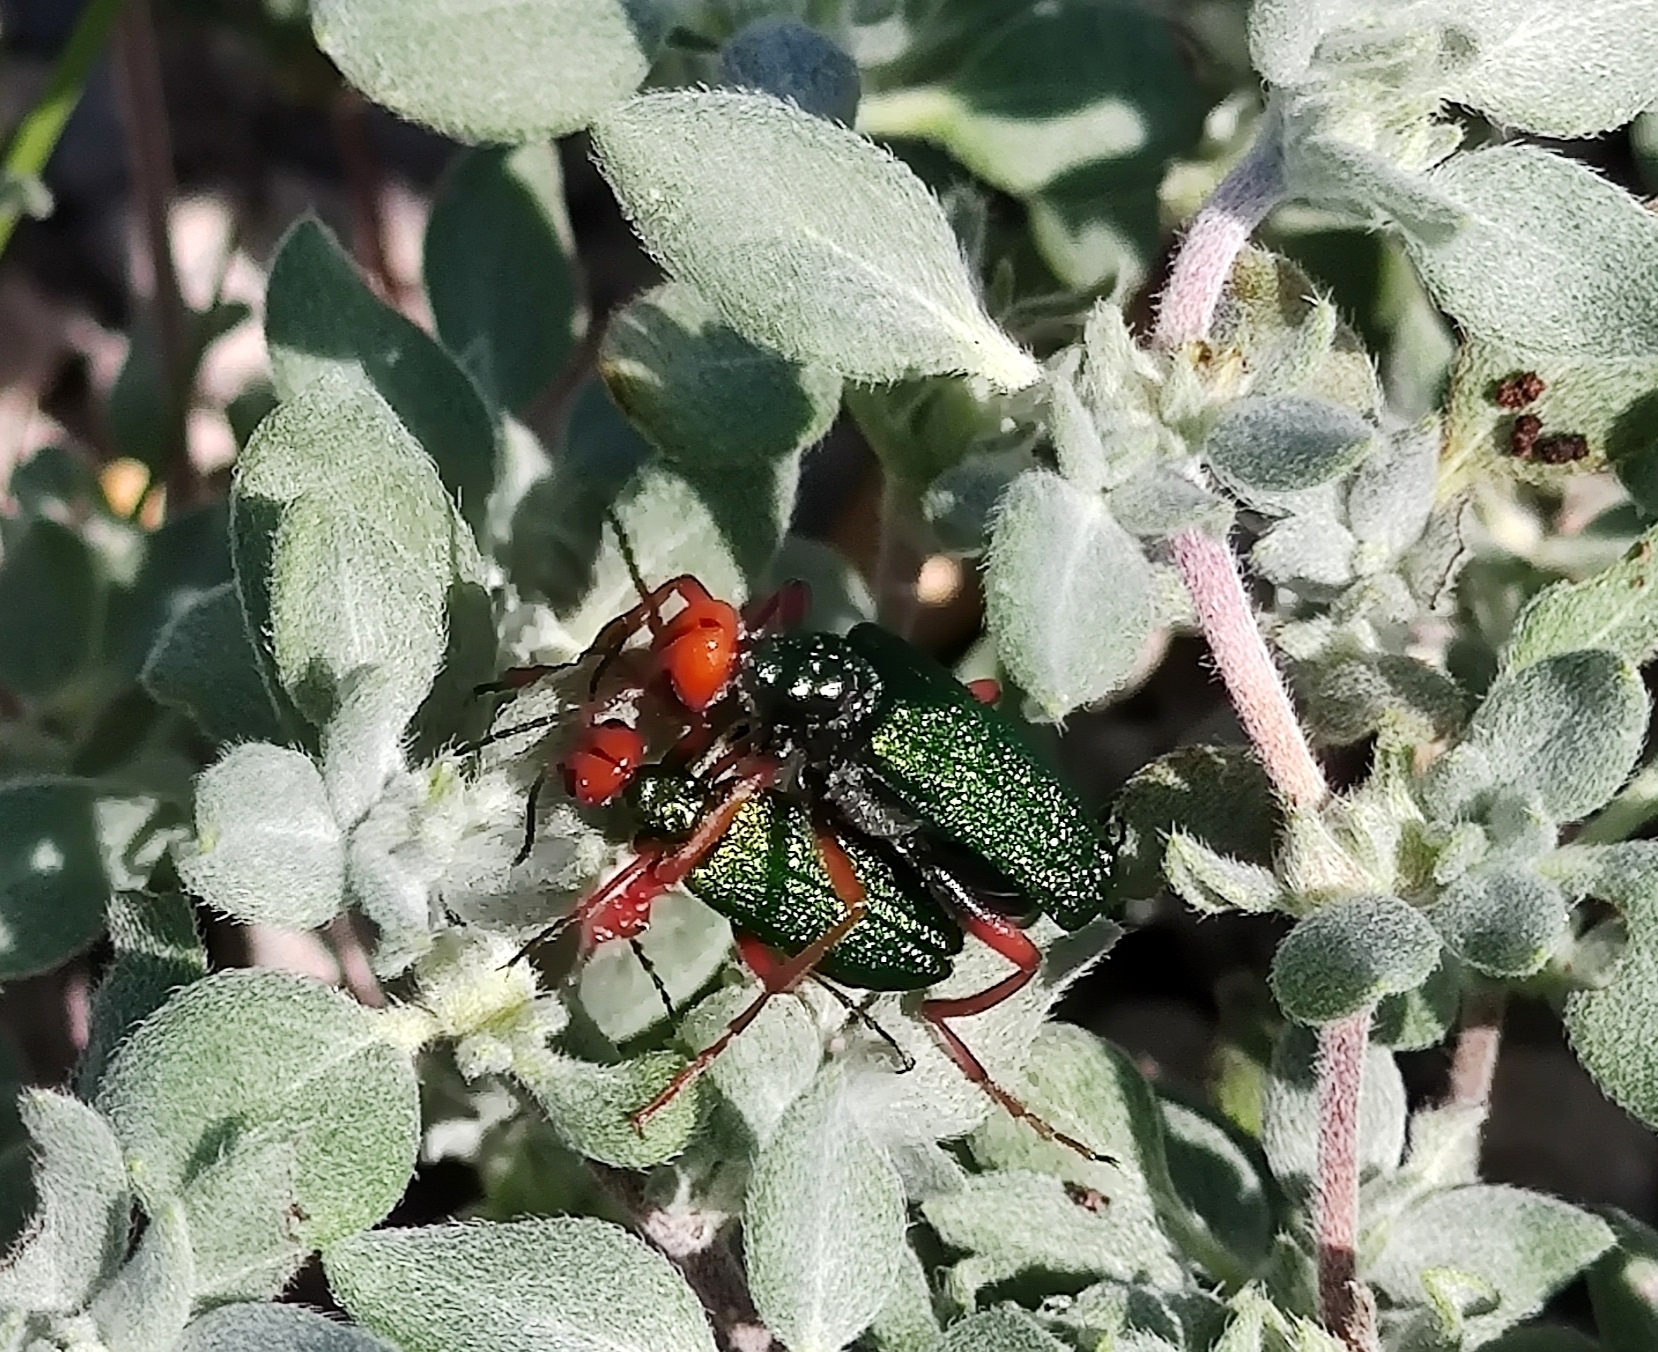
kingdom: Animalia
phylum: Arthropoda
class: Insecta
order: Coleoptera
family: Meloidae
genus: Eupompha
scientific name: Eupompha fissiceps
